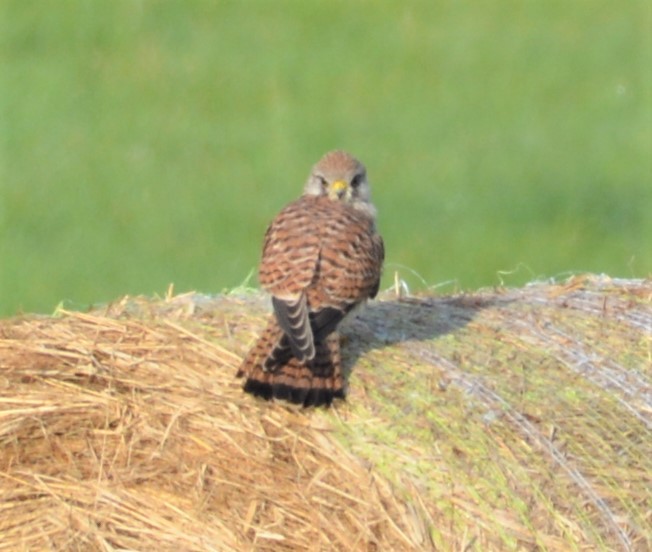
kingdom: Animalia
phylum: Chordata
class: Aves
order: Falconiformes
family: Falconidae
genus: Falco
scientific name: Falco tinnunculus
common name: Common kestrel
